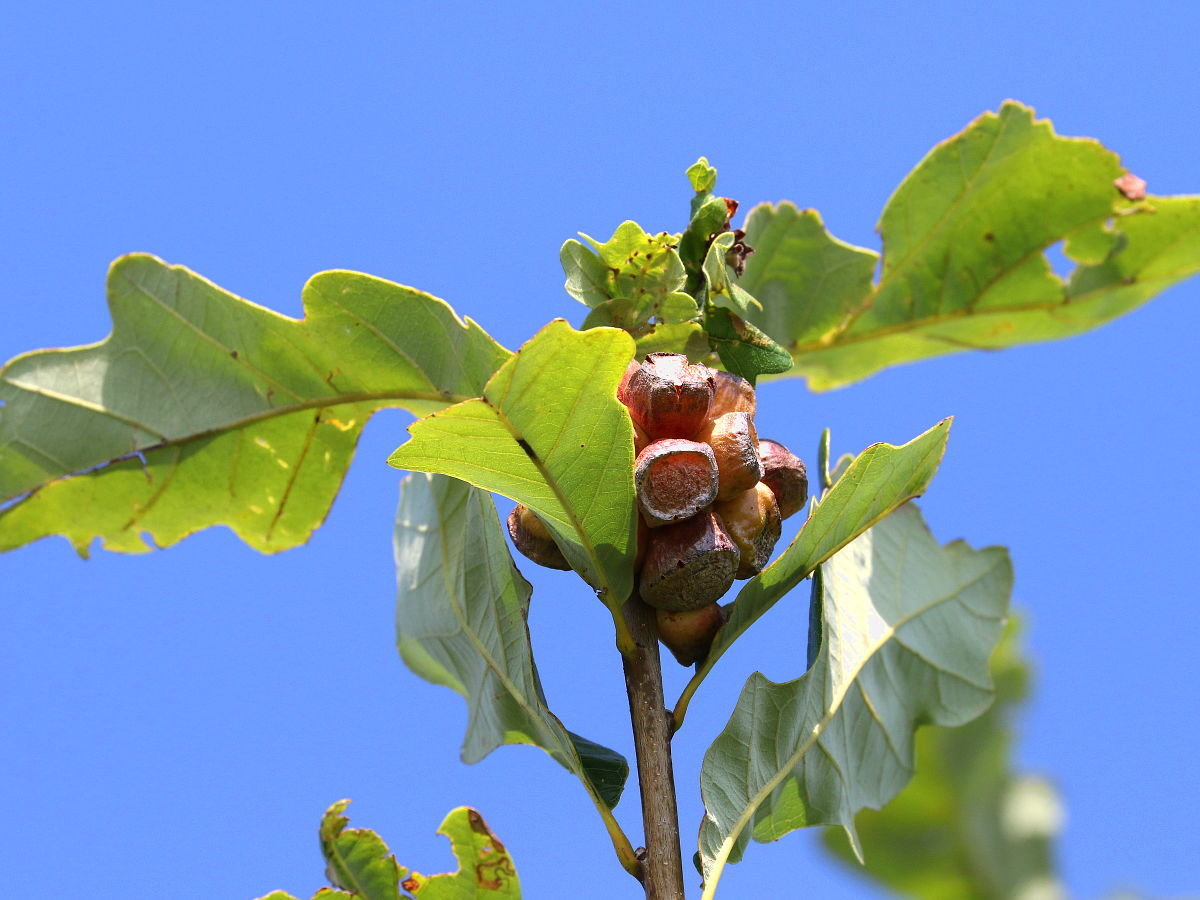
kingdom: Animalia
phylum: Arthropoda
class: Insecta
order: Hymenoptera
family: Cynipidae
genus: Andricus
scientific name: Andricus
